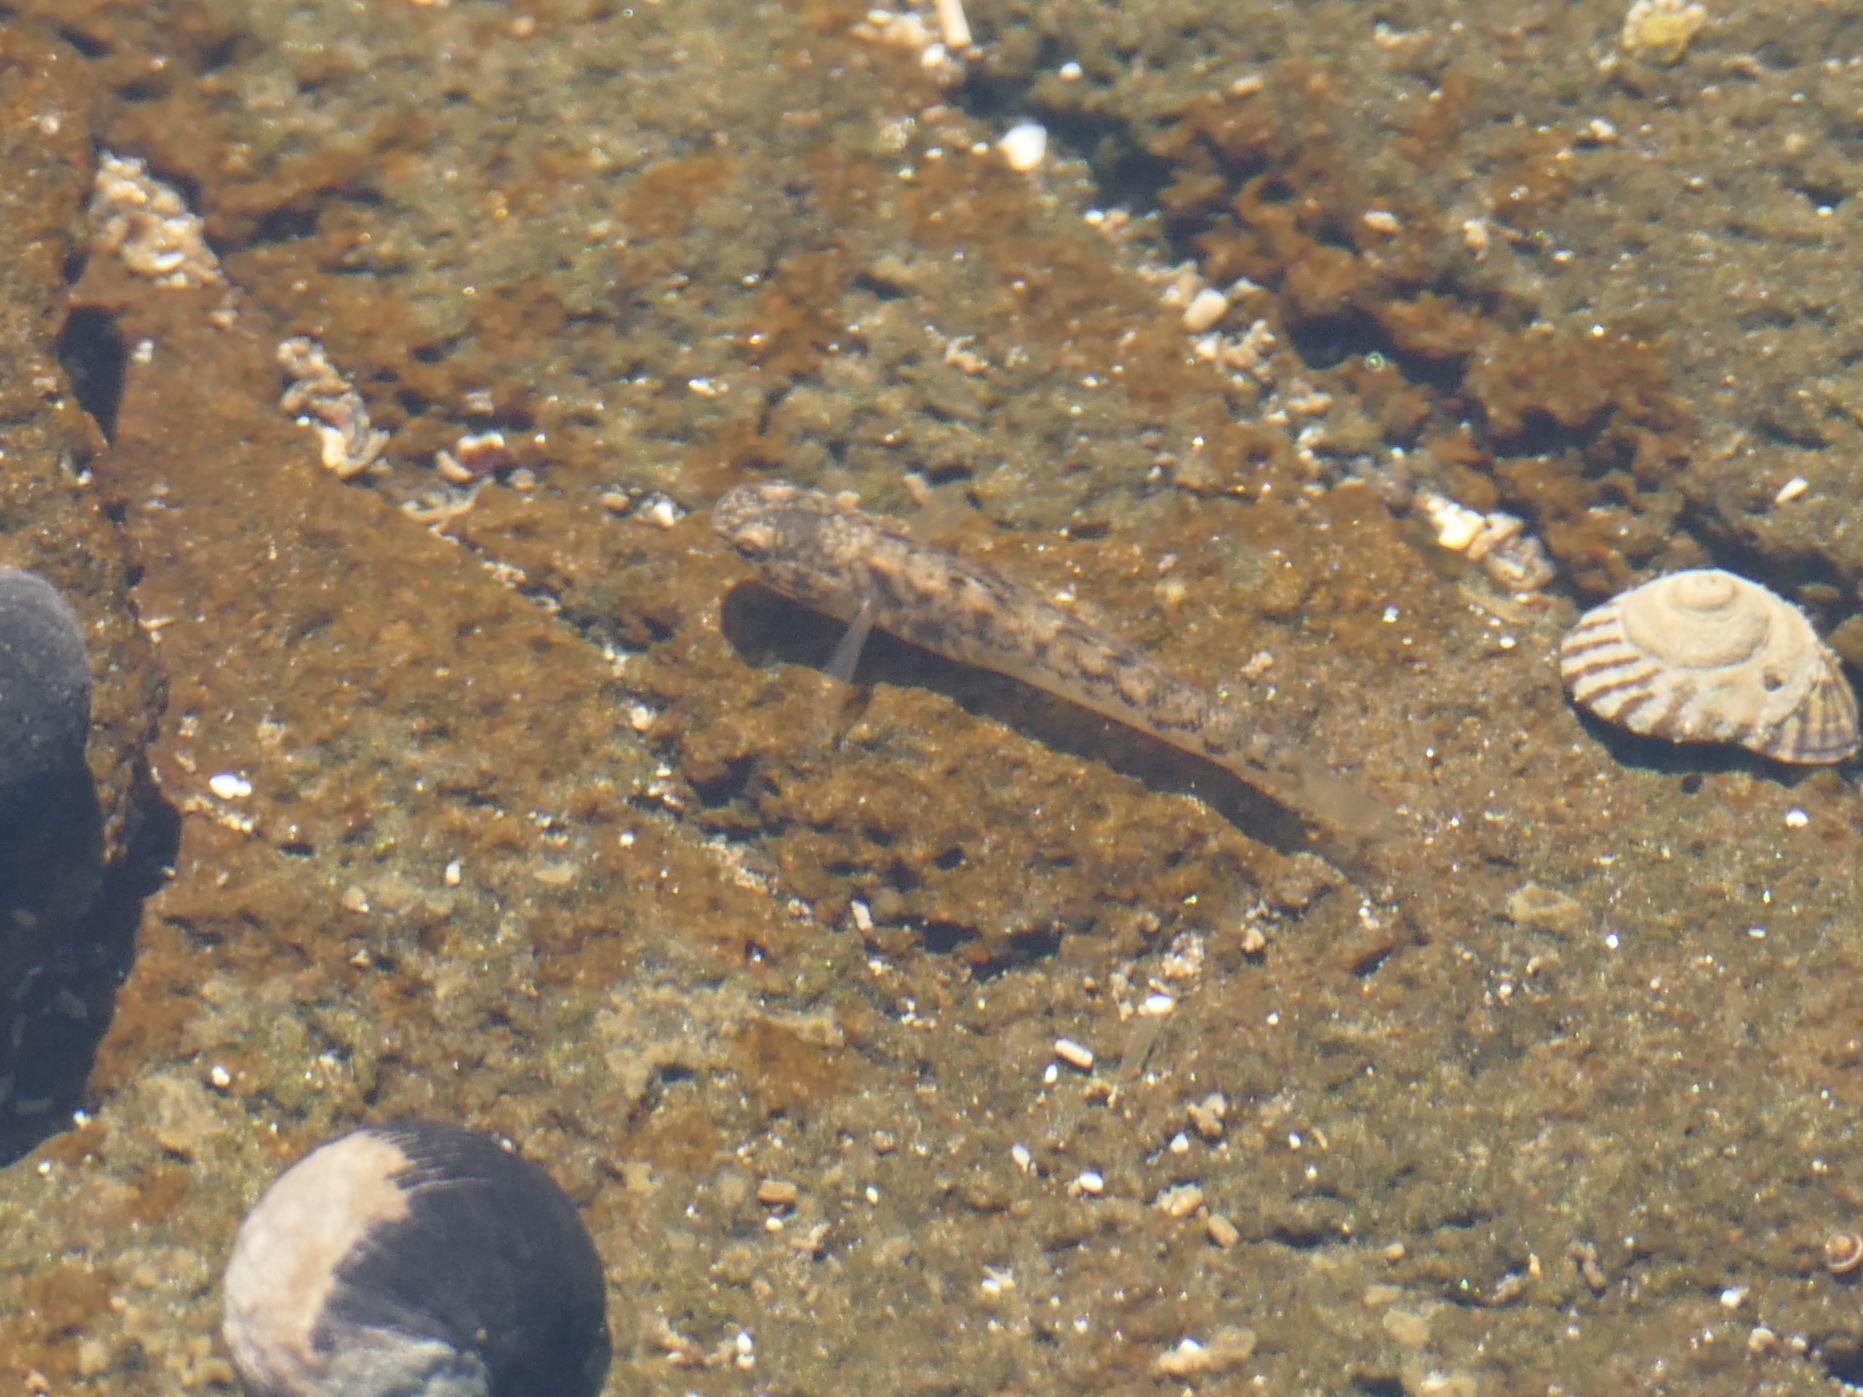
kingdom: Animalia
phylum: Chordata
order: Perciformes
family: Gobiidae
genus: Mugilogobius
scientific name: Mugilogobius platynotus
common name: Flat-backed goby
